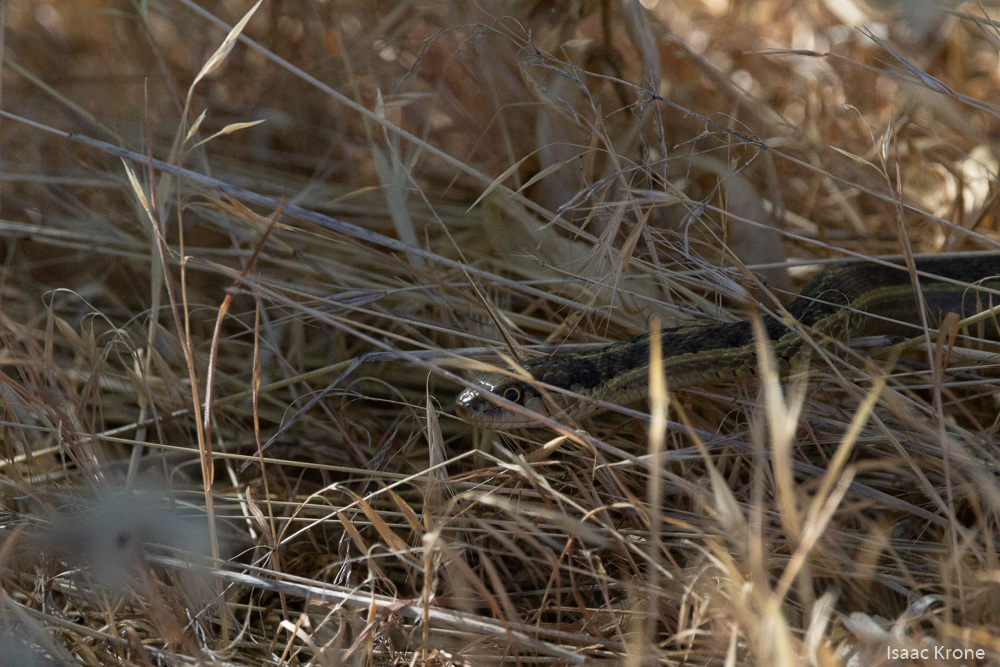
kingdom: Animalia
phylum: Chordata
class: Squamata
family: Colubridae
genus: Thamnophis
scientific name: Thamnophis elegans
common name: Western terrestrial garter snake
